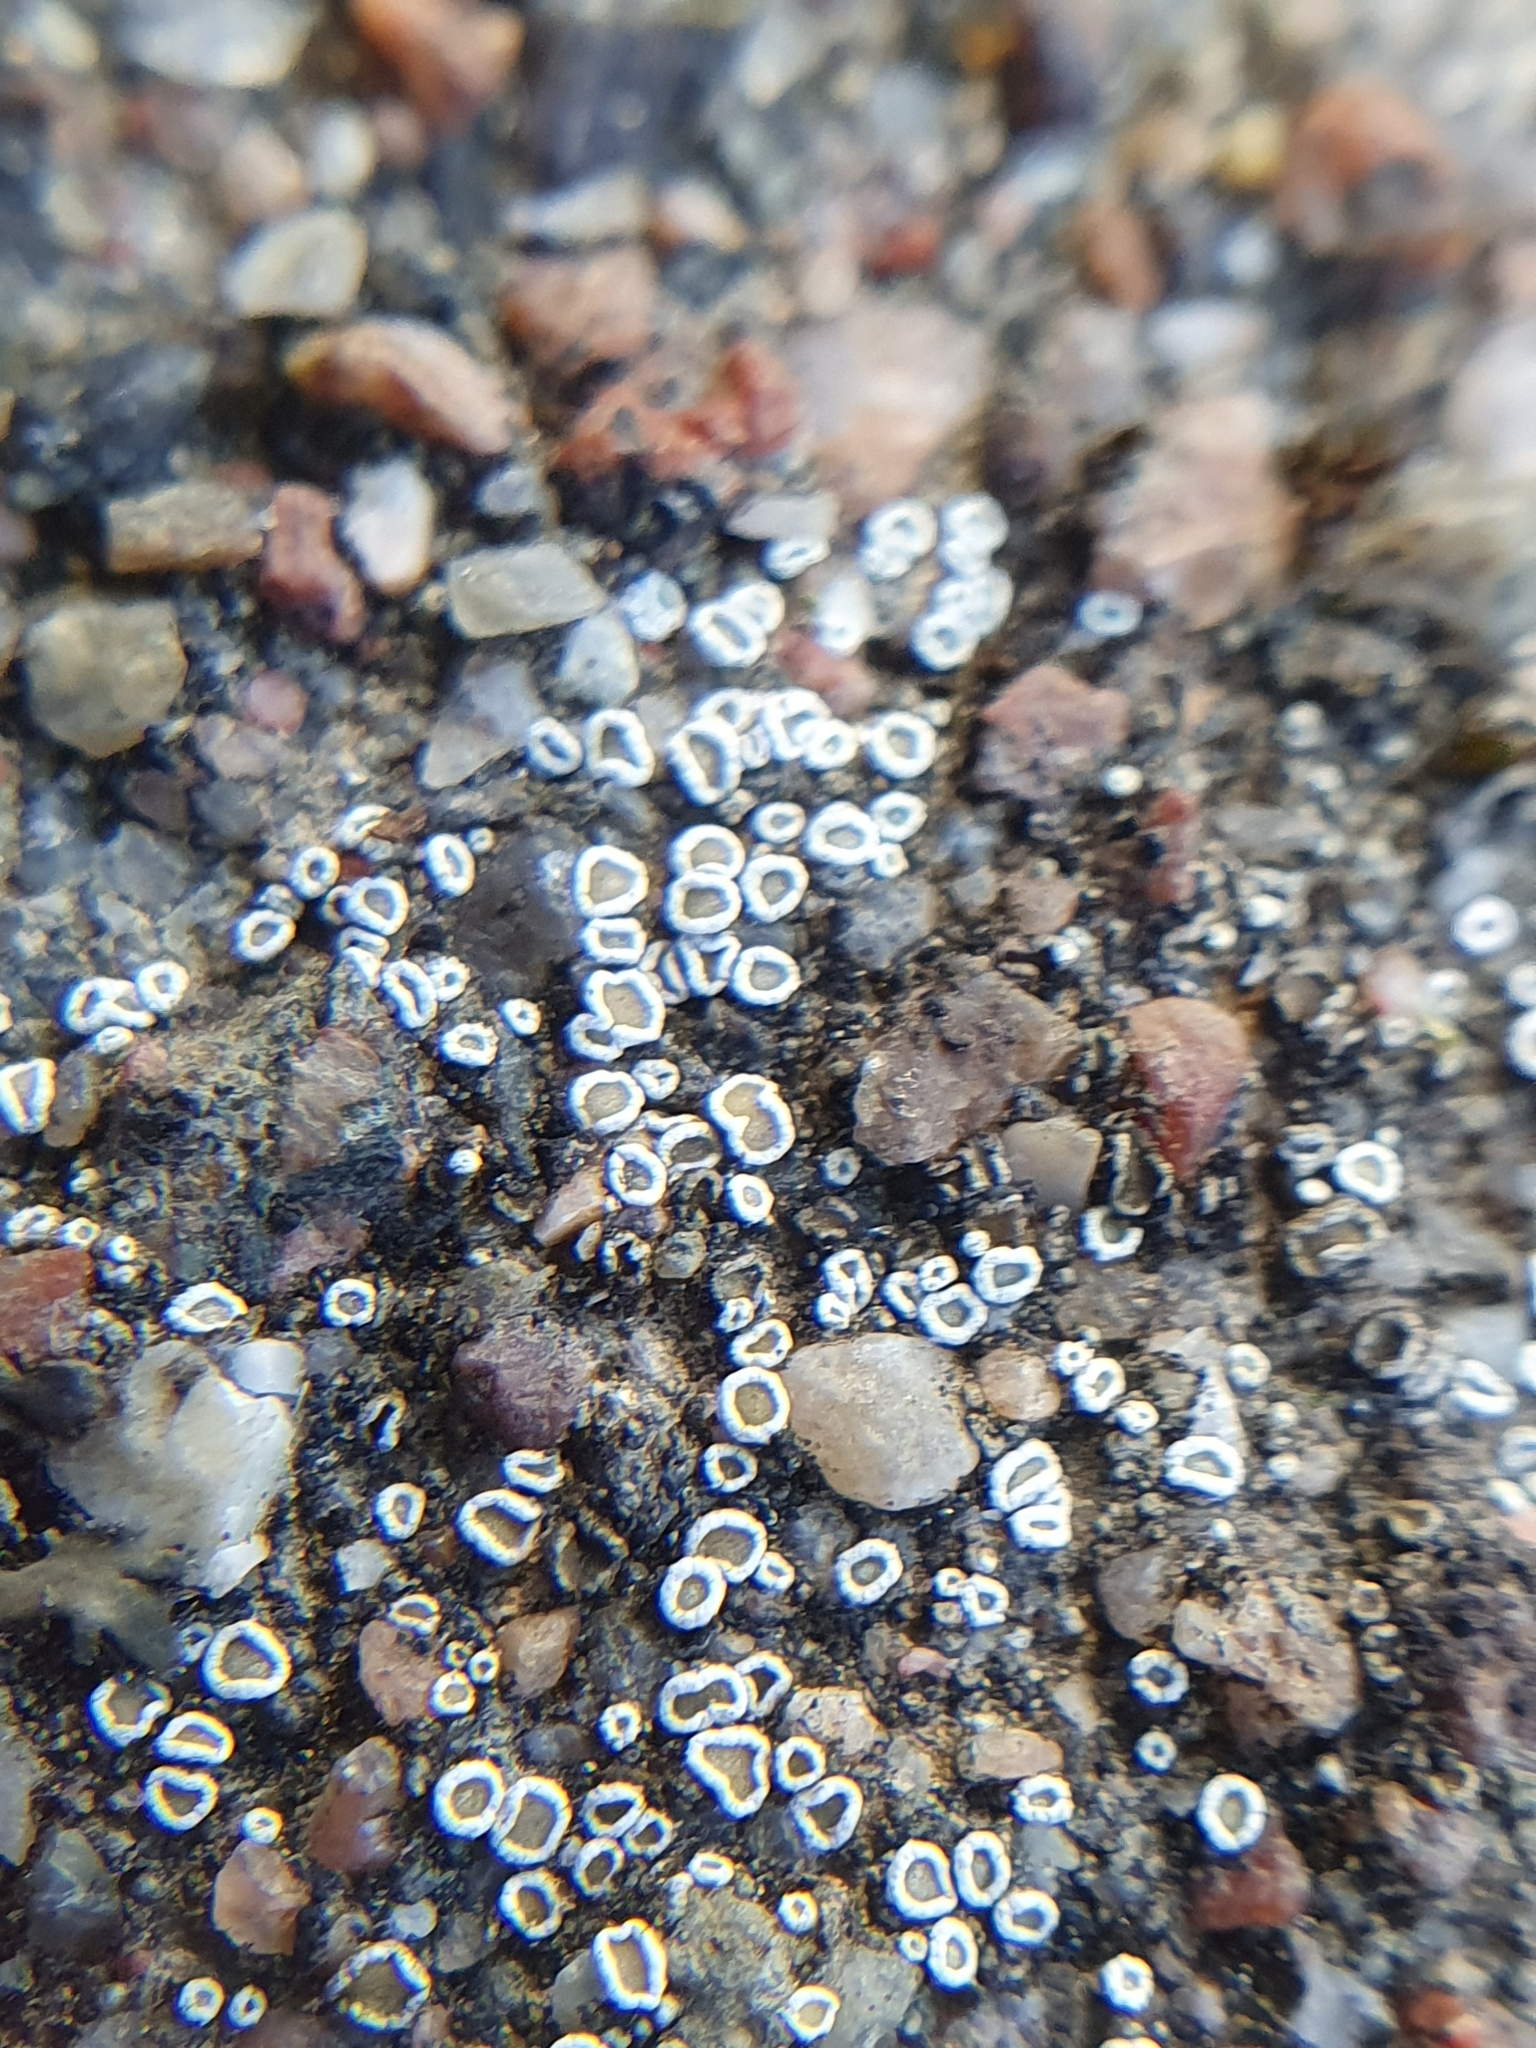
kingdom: Fungi
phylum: Ascomycota
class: Lecanoromycetes
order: Lecanorales
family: Lecanoraceae
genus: Polyozosia
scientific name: Polyozosia dispersa
